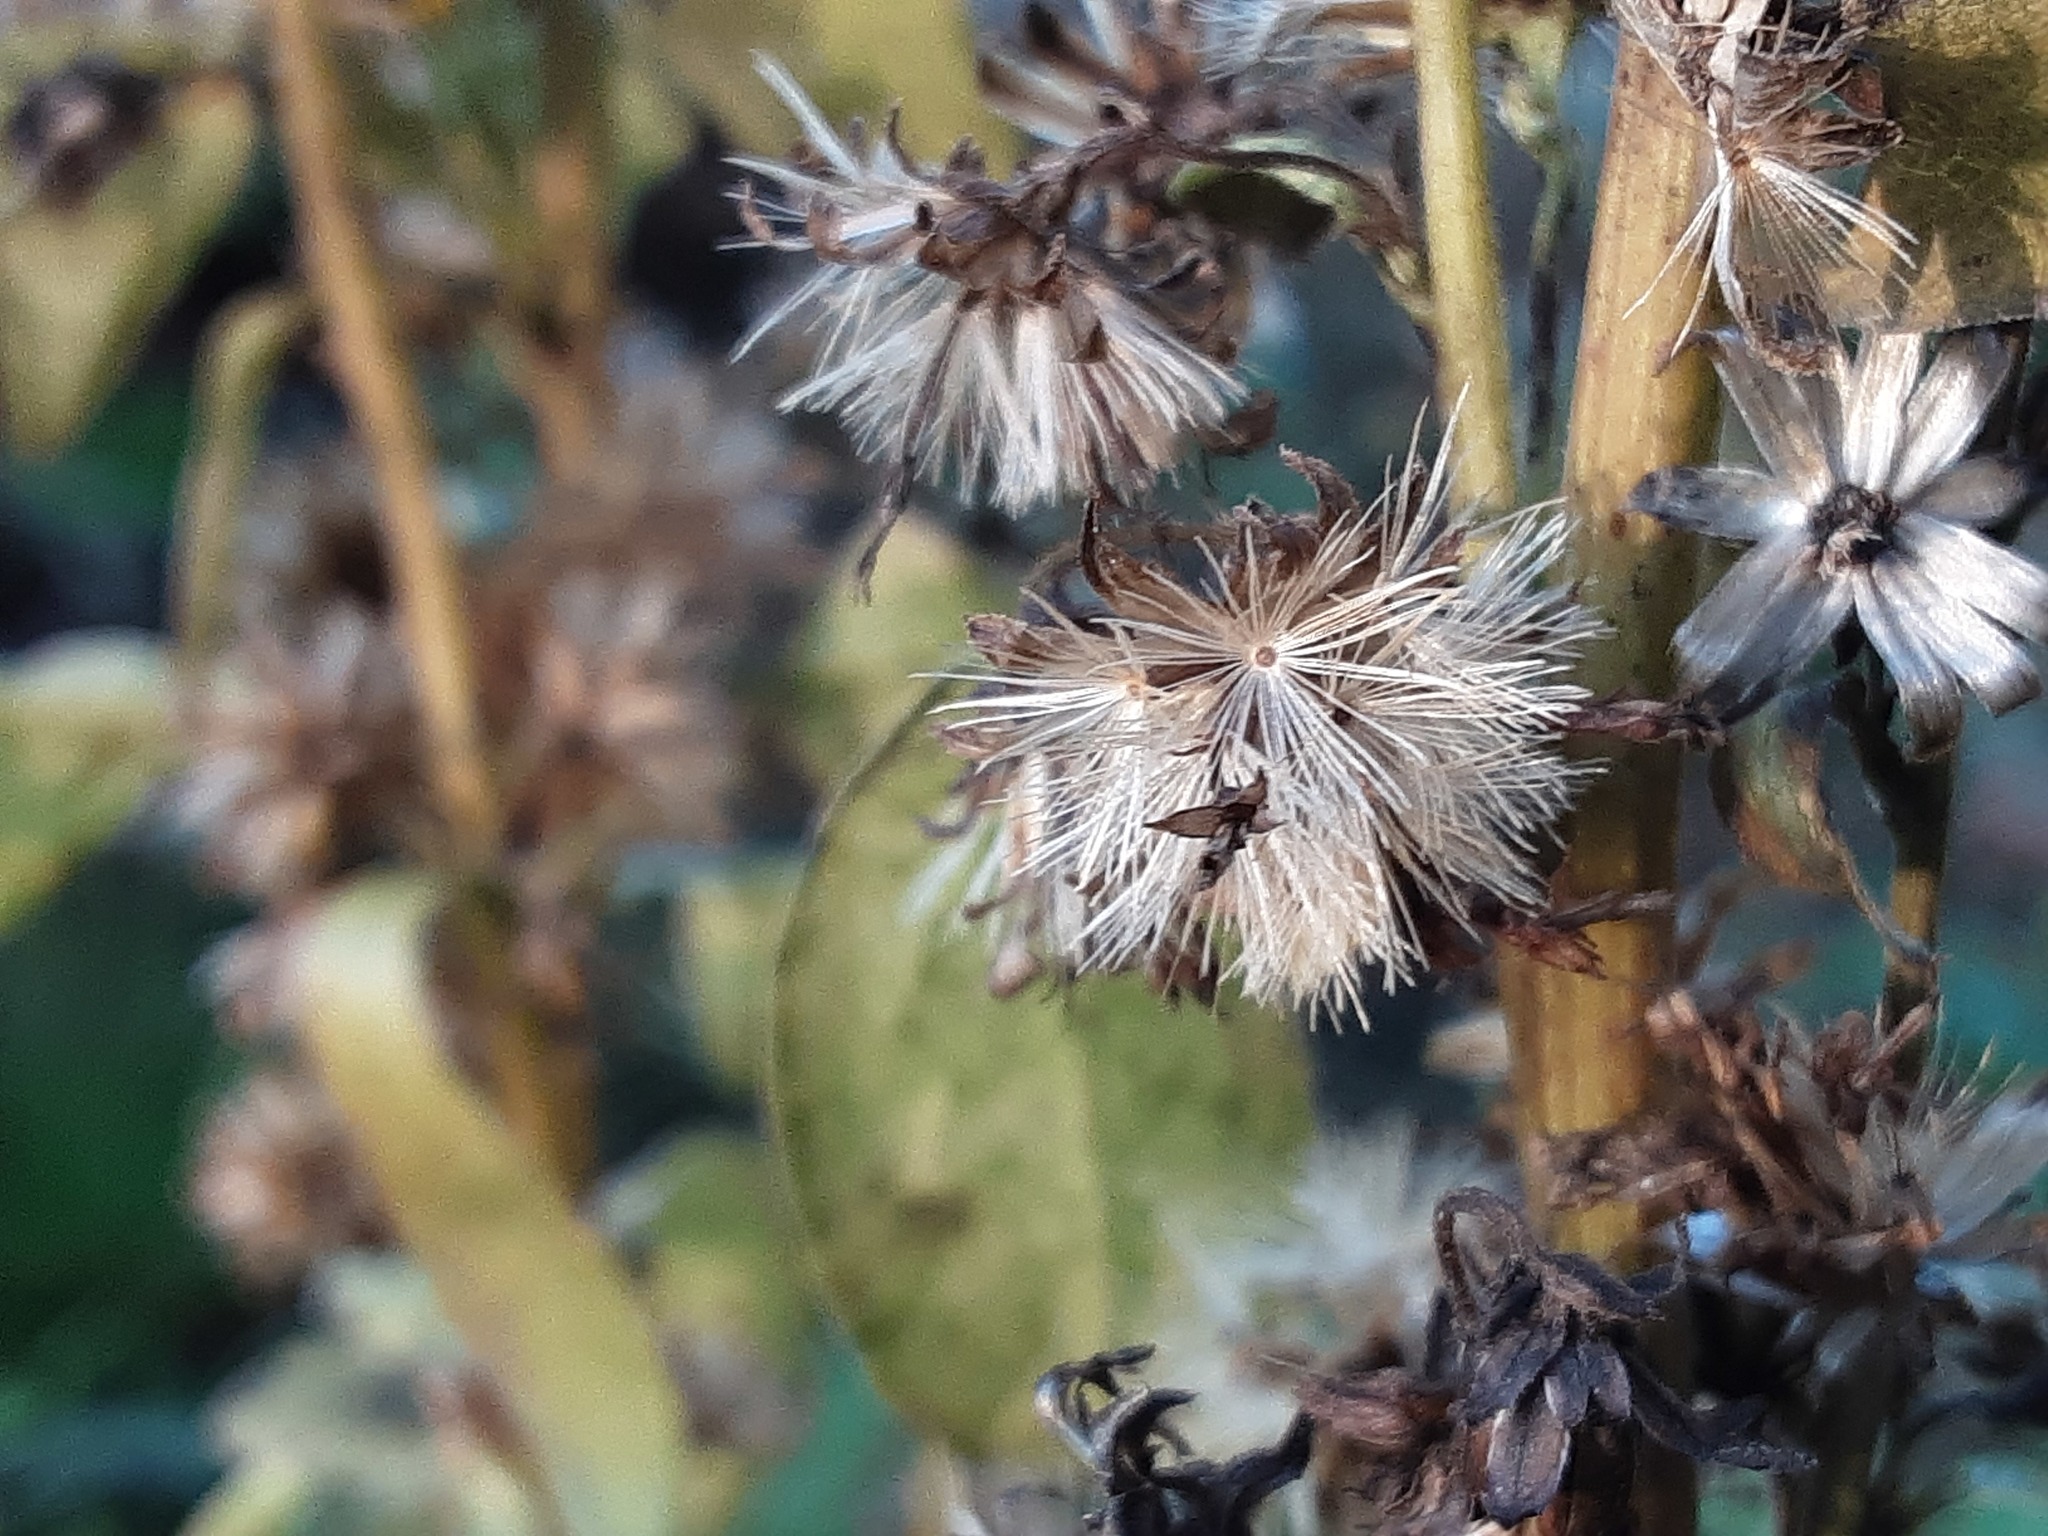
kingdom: Plantae
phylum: Tracheophyta
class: Magnoliopsida
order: Asterales
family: Asteraceae
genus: Solidago
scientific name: Solidago virgaurea
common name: Goldenrod
